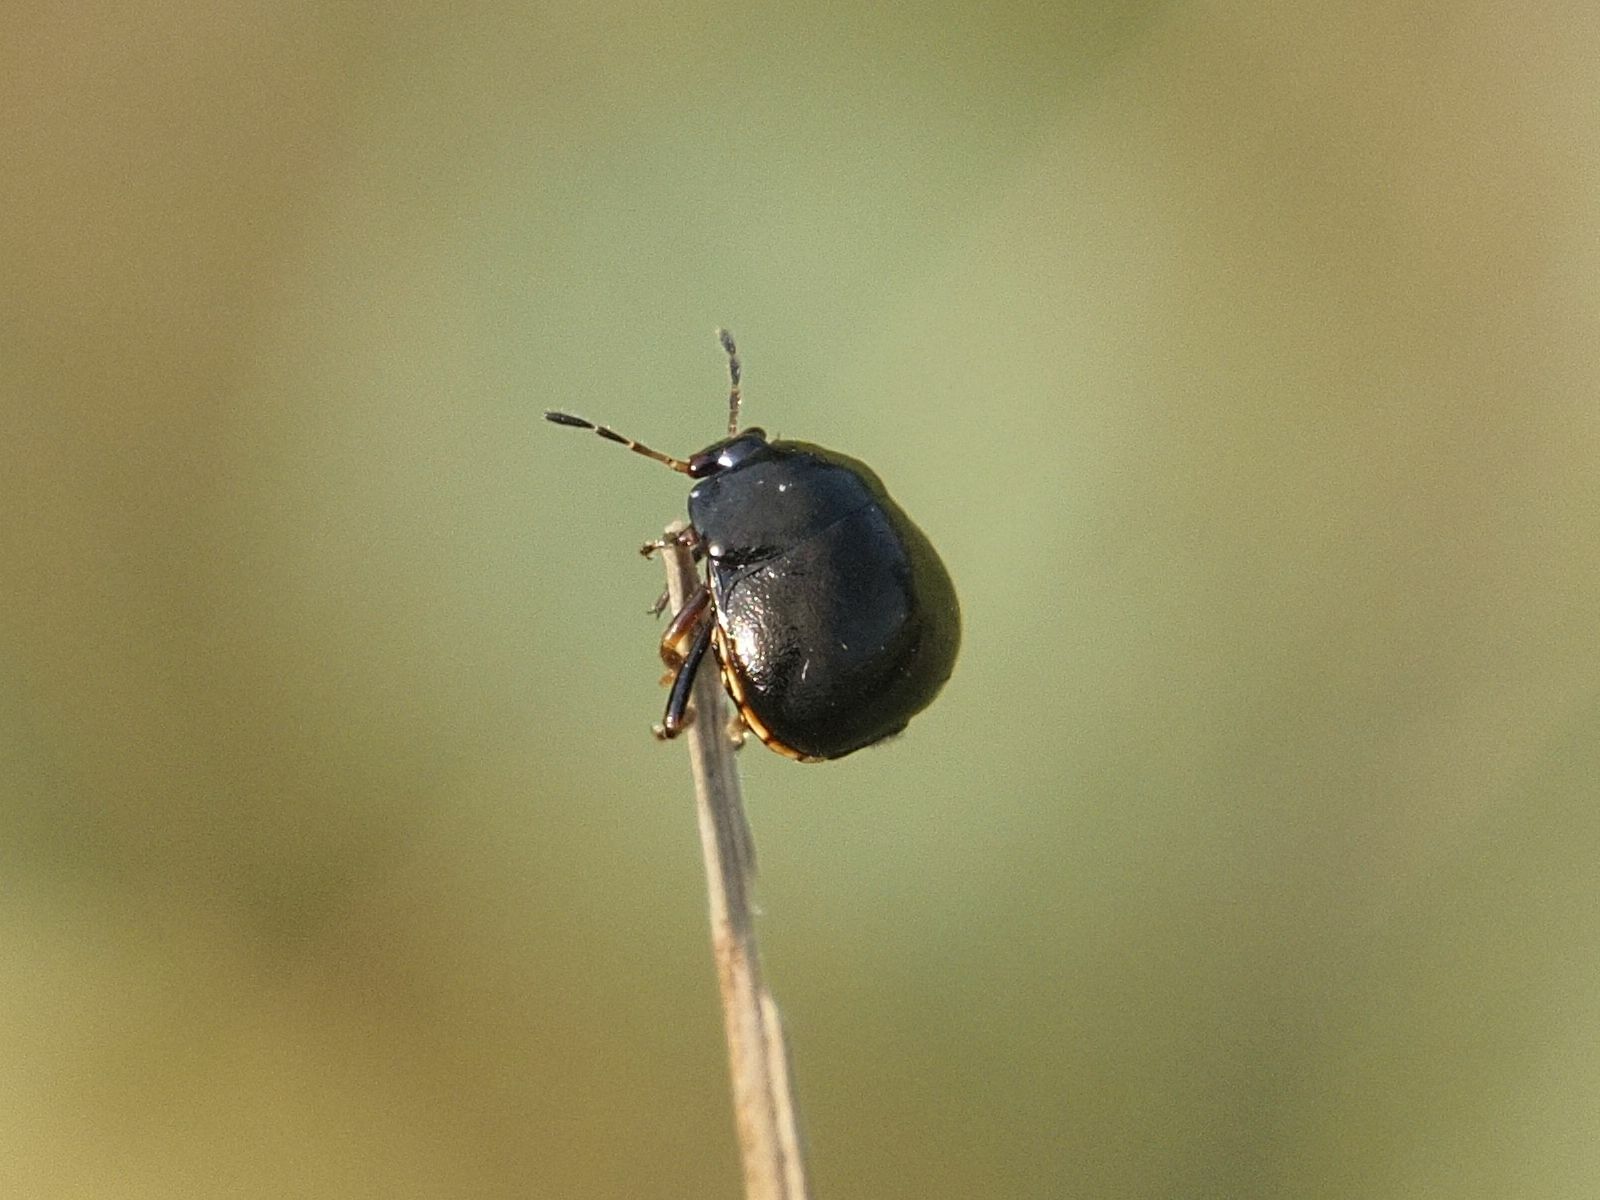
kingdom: Animalia
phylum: Arthropoda
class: Insecta
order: Hemiptera
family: Plataspidae
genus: Coptosoma
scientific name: Coptosoma scutellatum
